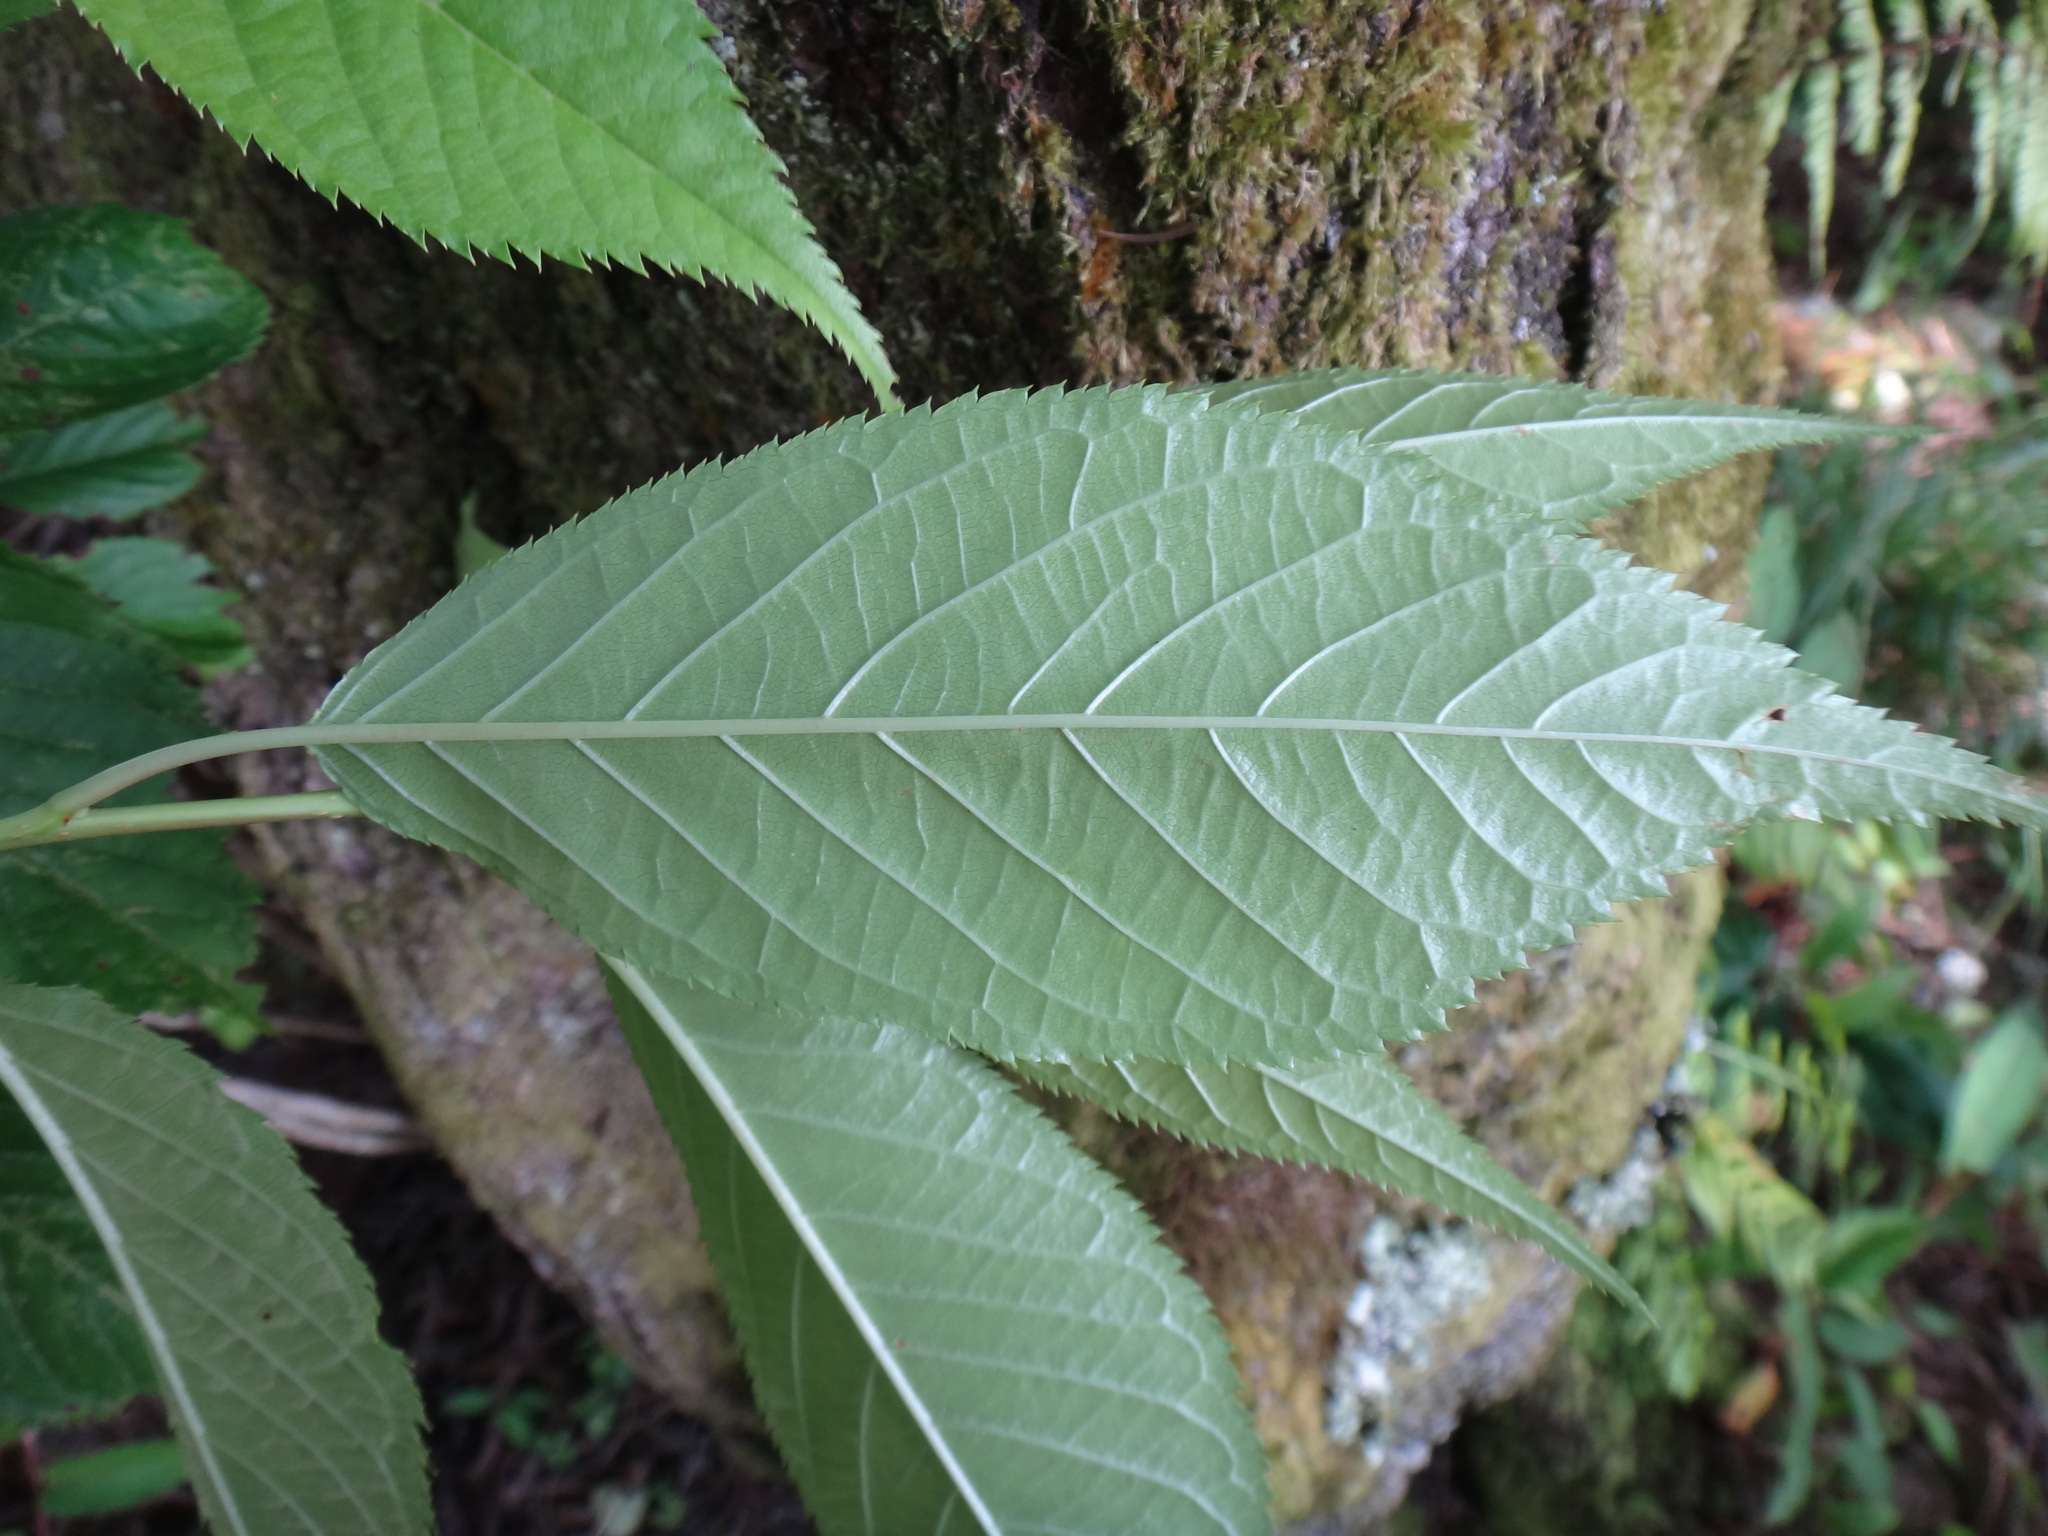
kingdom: Plantae
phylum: Tracheophyta
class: Magnoliopsida
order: Rosales
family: Rosaceae
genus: Prunus
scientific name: Prunus campanulata
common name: Taiwan flowering cherry
